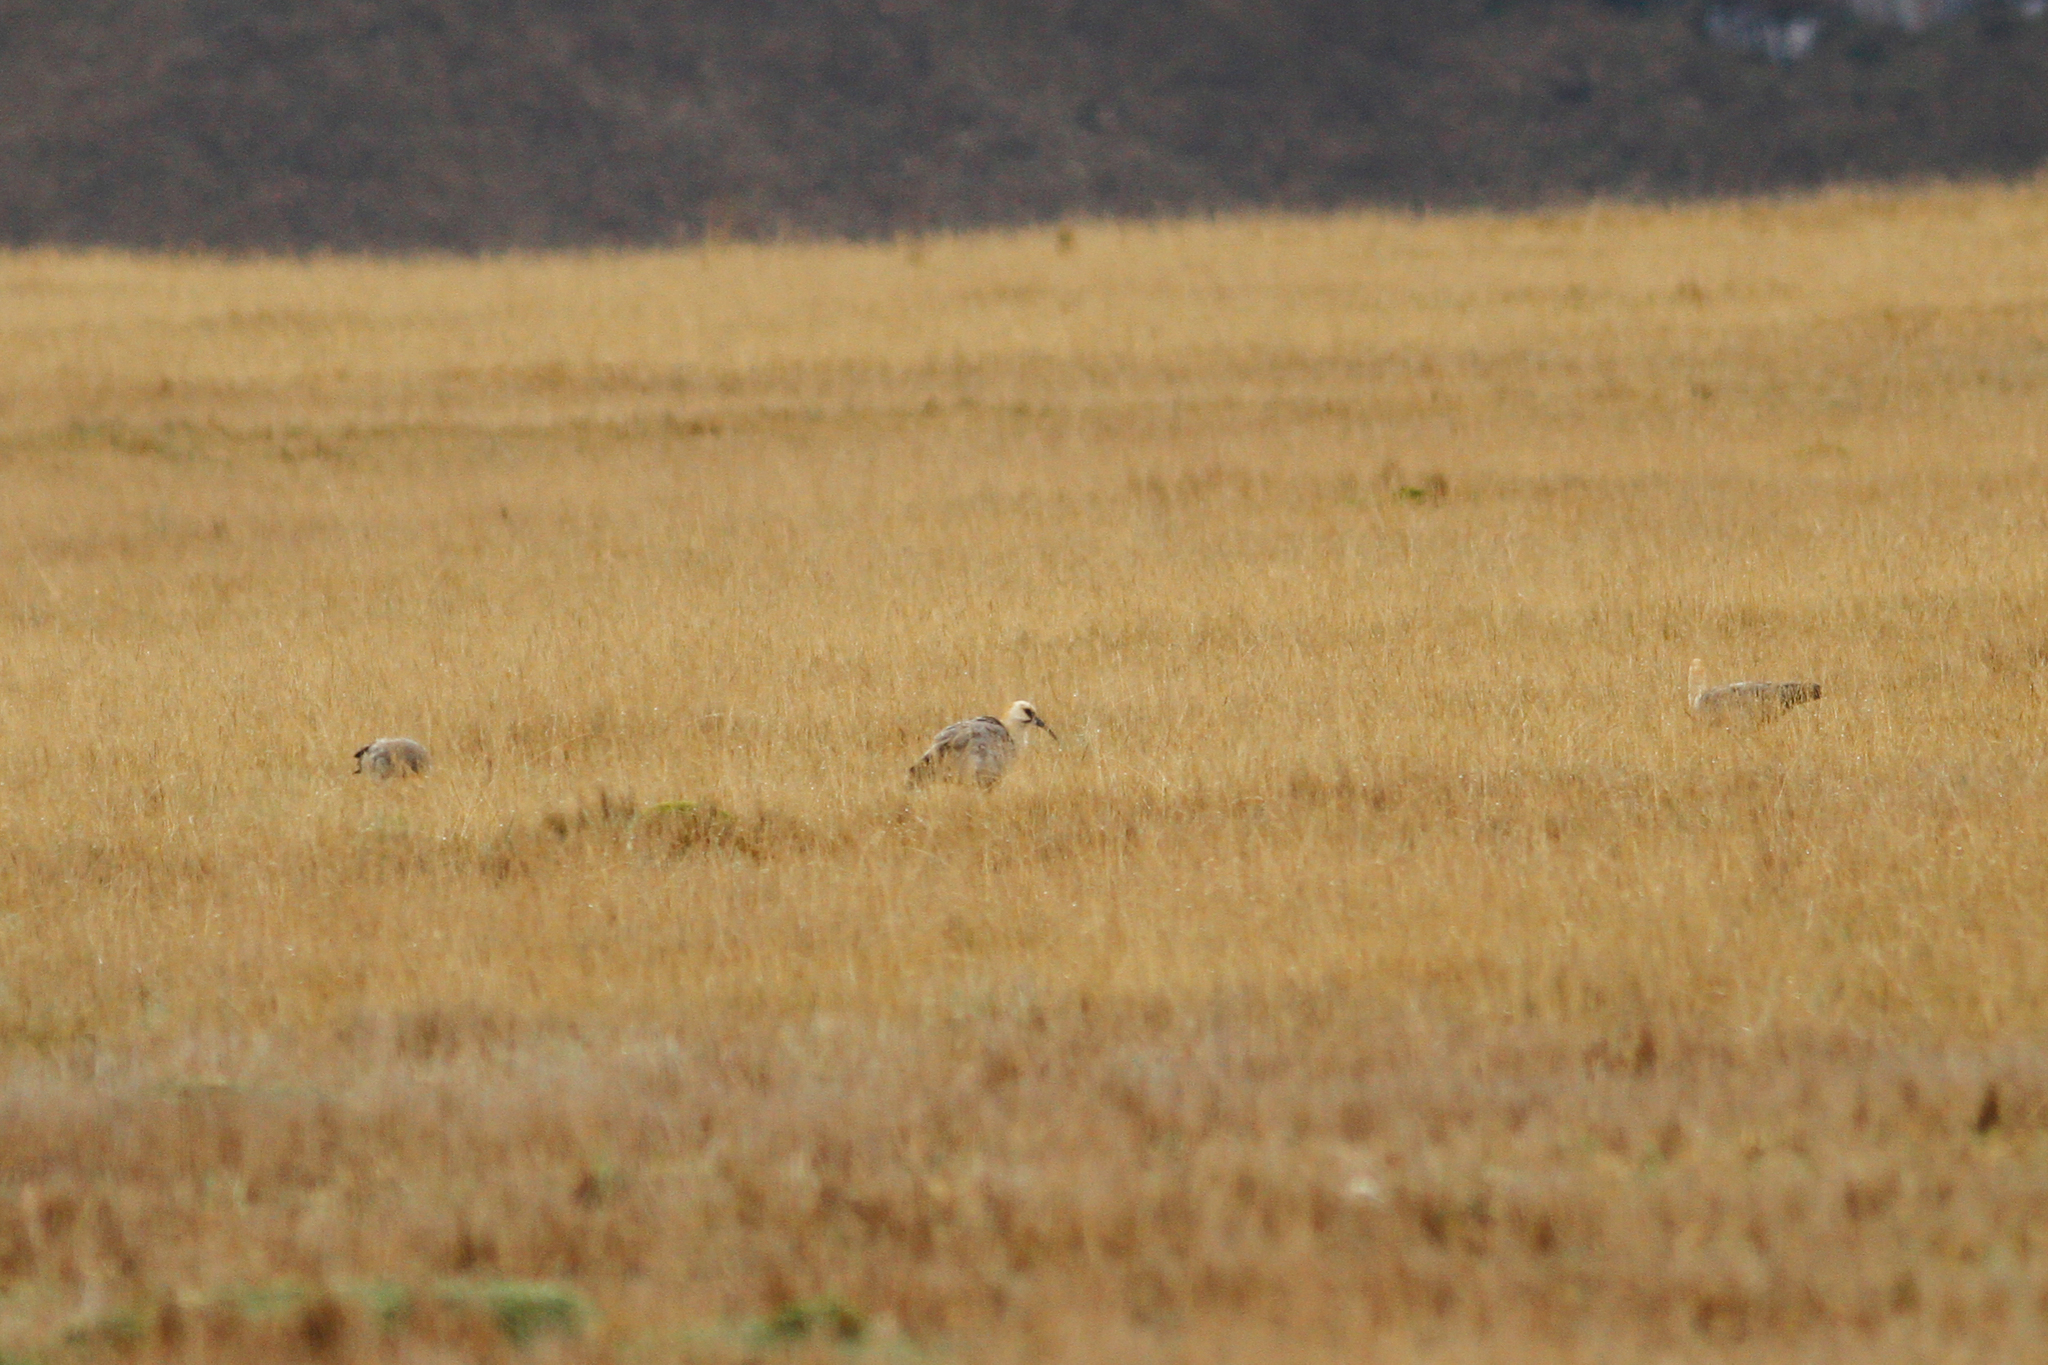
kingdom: Animalia
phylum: Chordata
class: Aves
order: Pelecaniformes
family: Threskiornithidae
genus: Theristicus
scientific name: Theristicus melanopis
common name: Black-faced ibis
